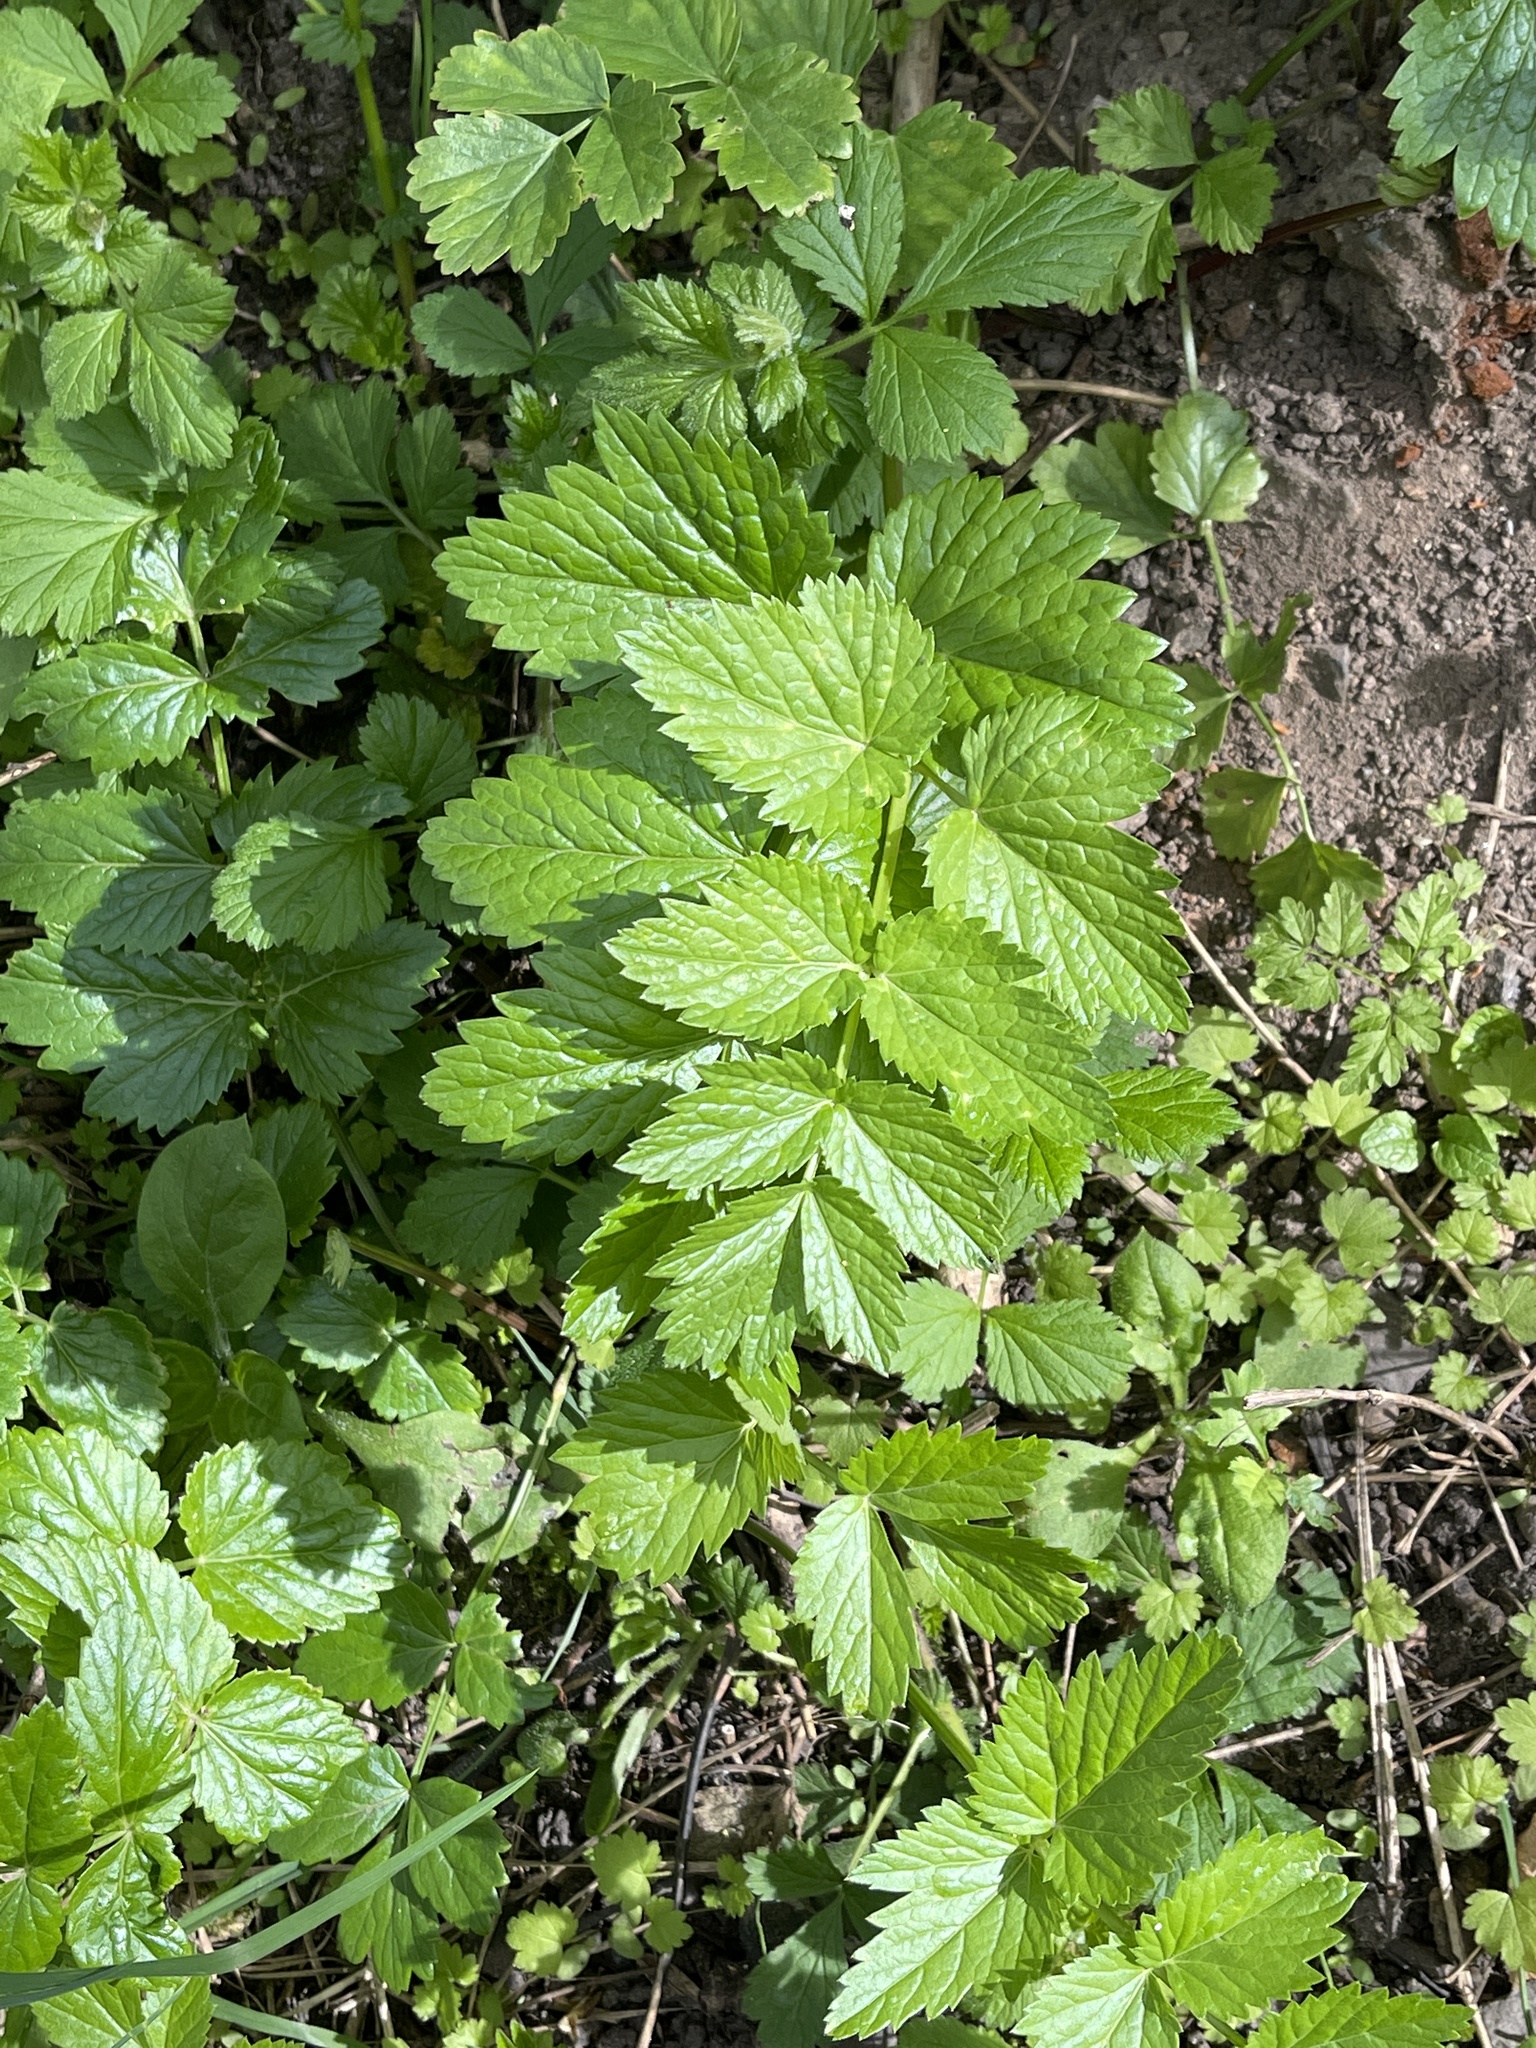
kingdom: Plantae
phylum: Tracheophyta
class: Magnoliopsida
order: Apiales
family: Apiaceae
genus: Pimpinella
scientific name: Pimpinella major
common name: Greater burnet-saxifrage
